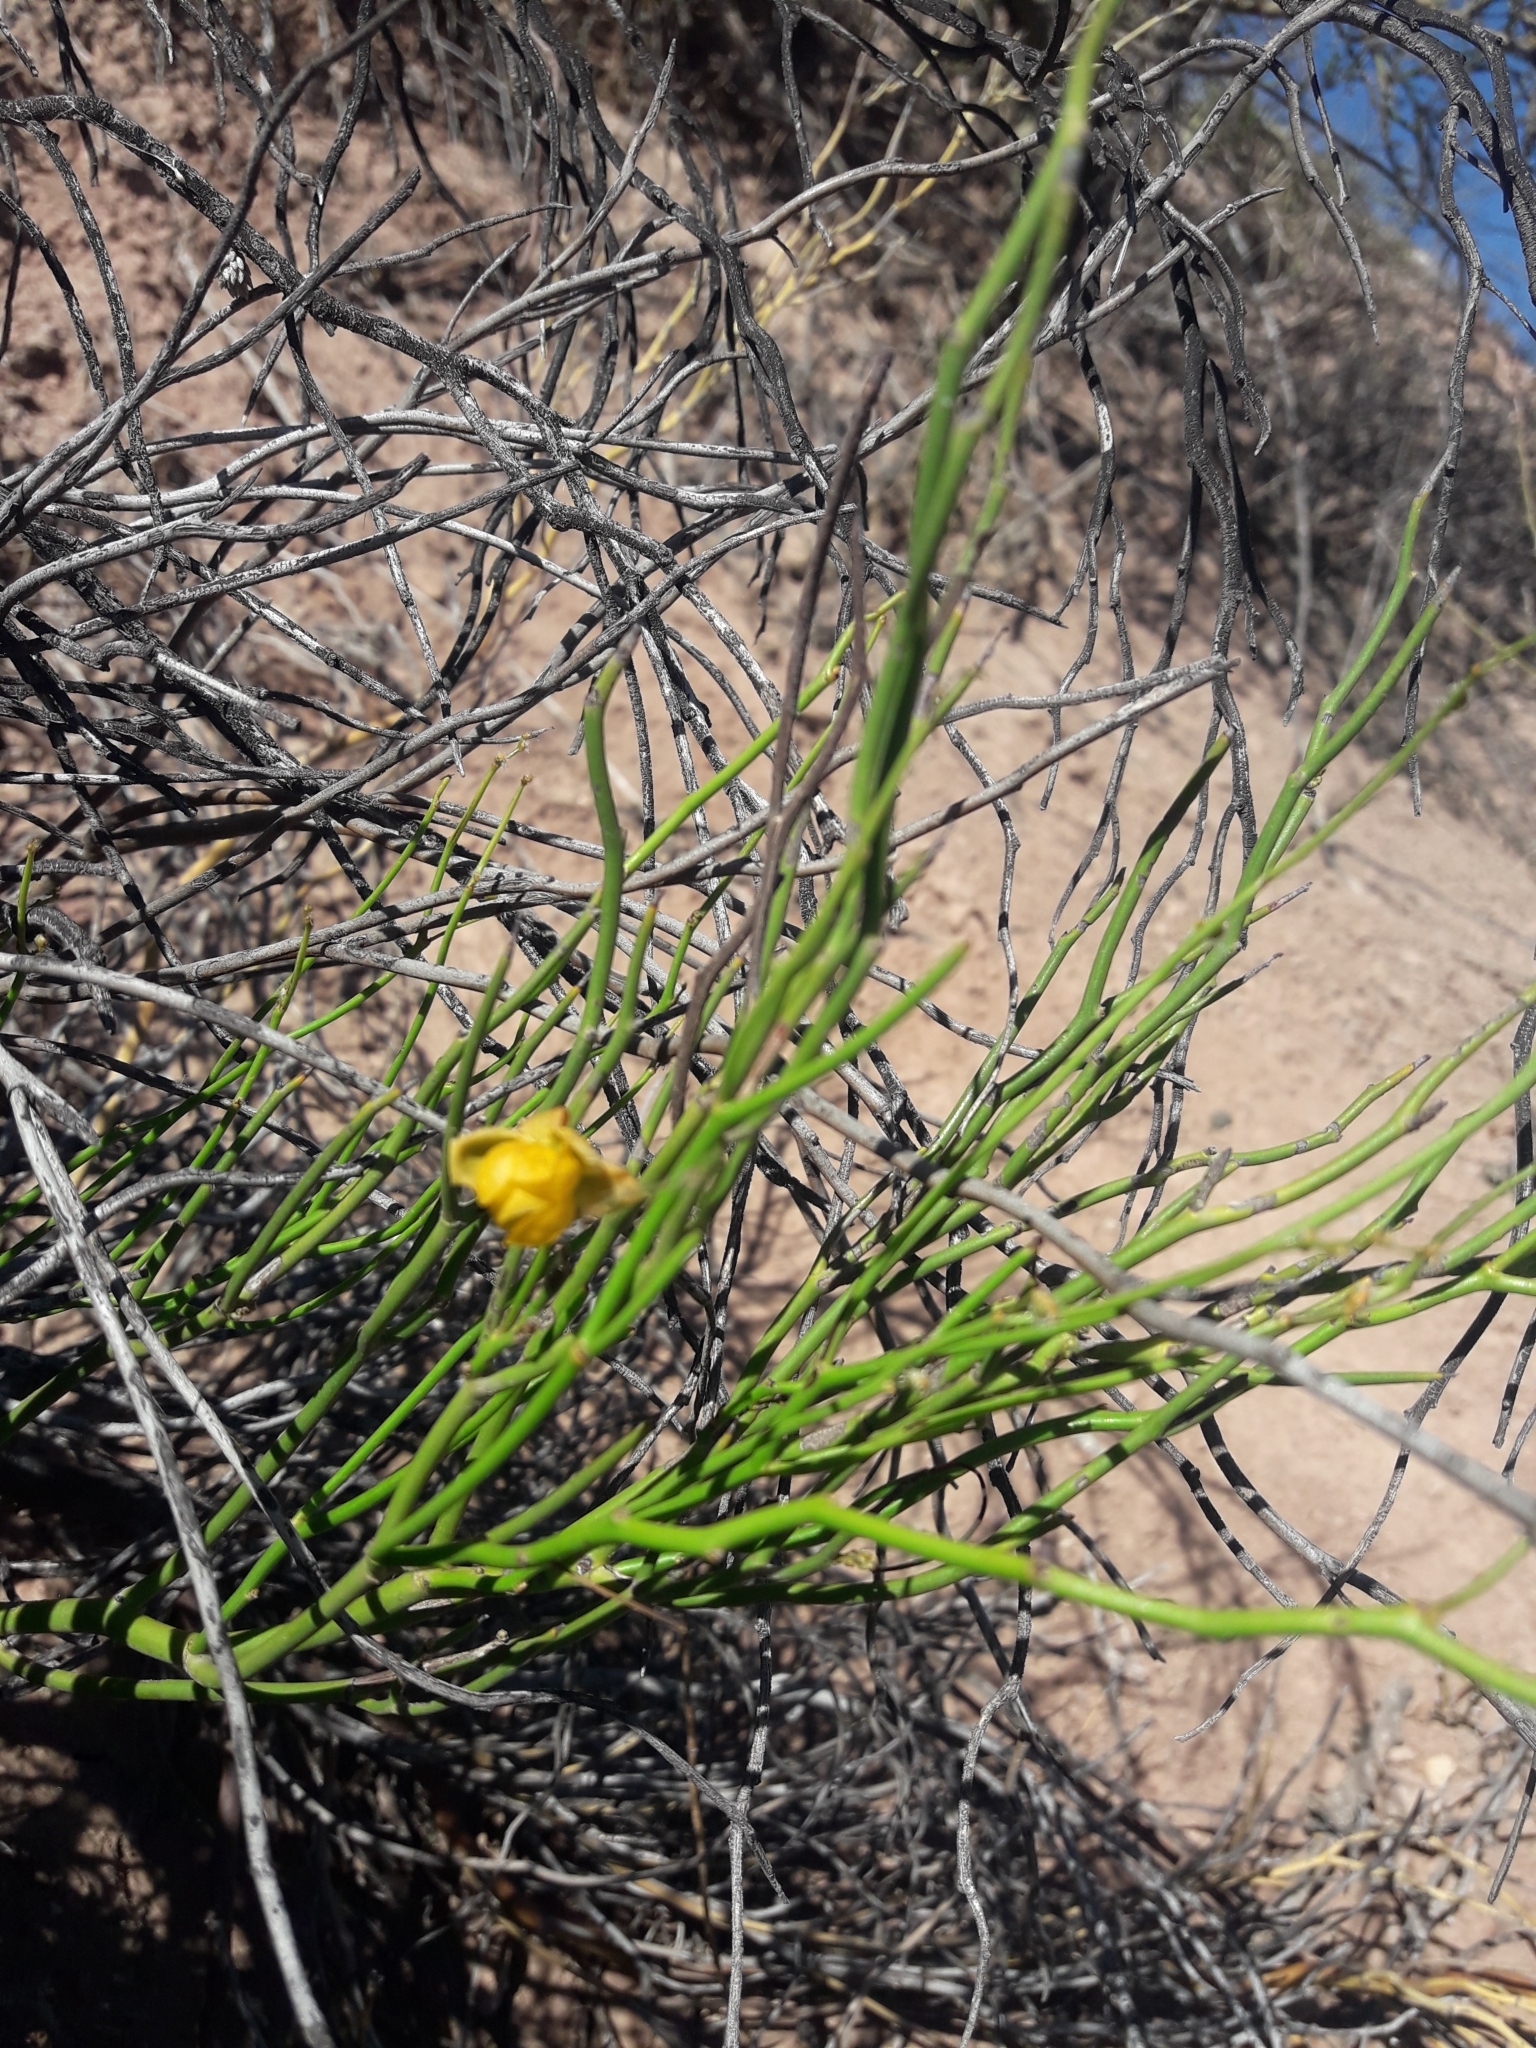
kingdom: Plantae
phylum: Tracheophyta
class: Magnoliopsida
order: Fabales
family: Fabaceae
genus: Senna
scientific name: Senna aphylla
